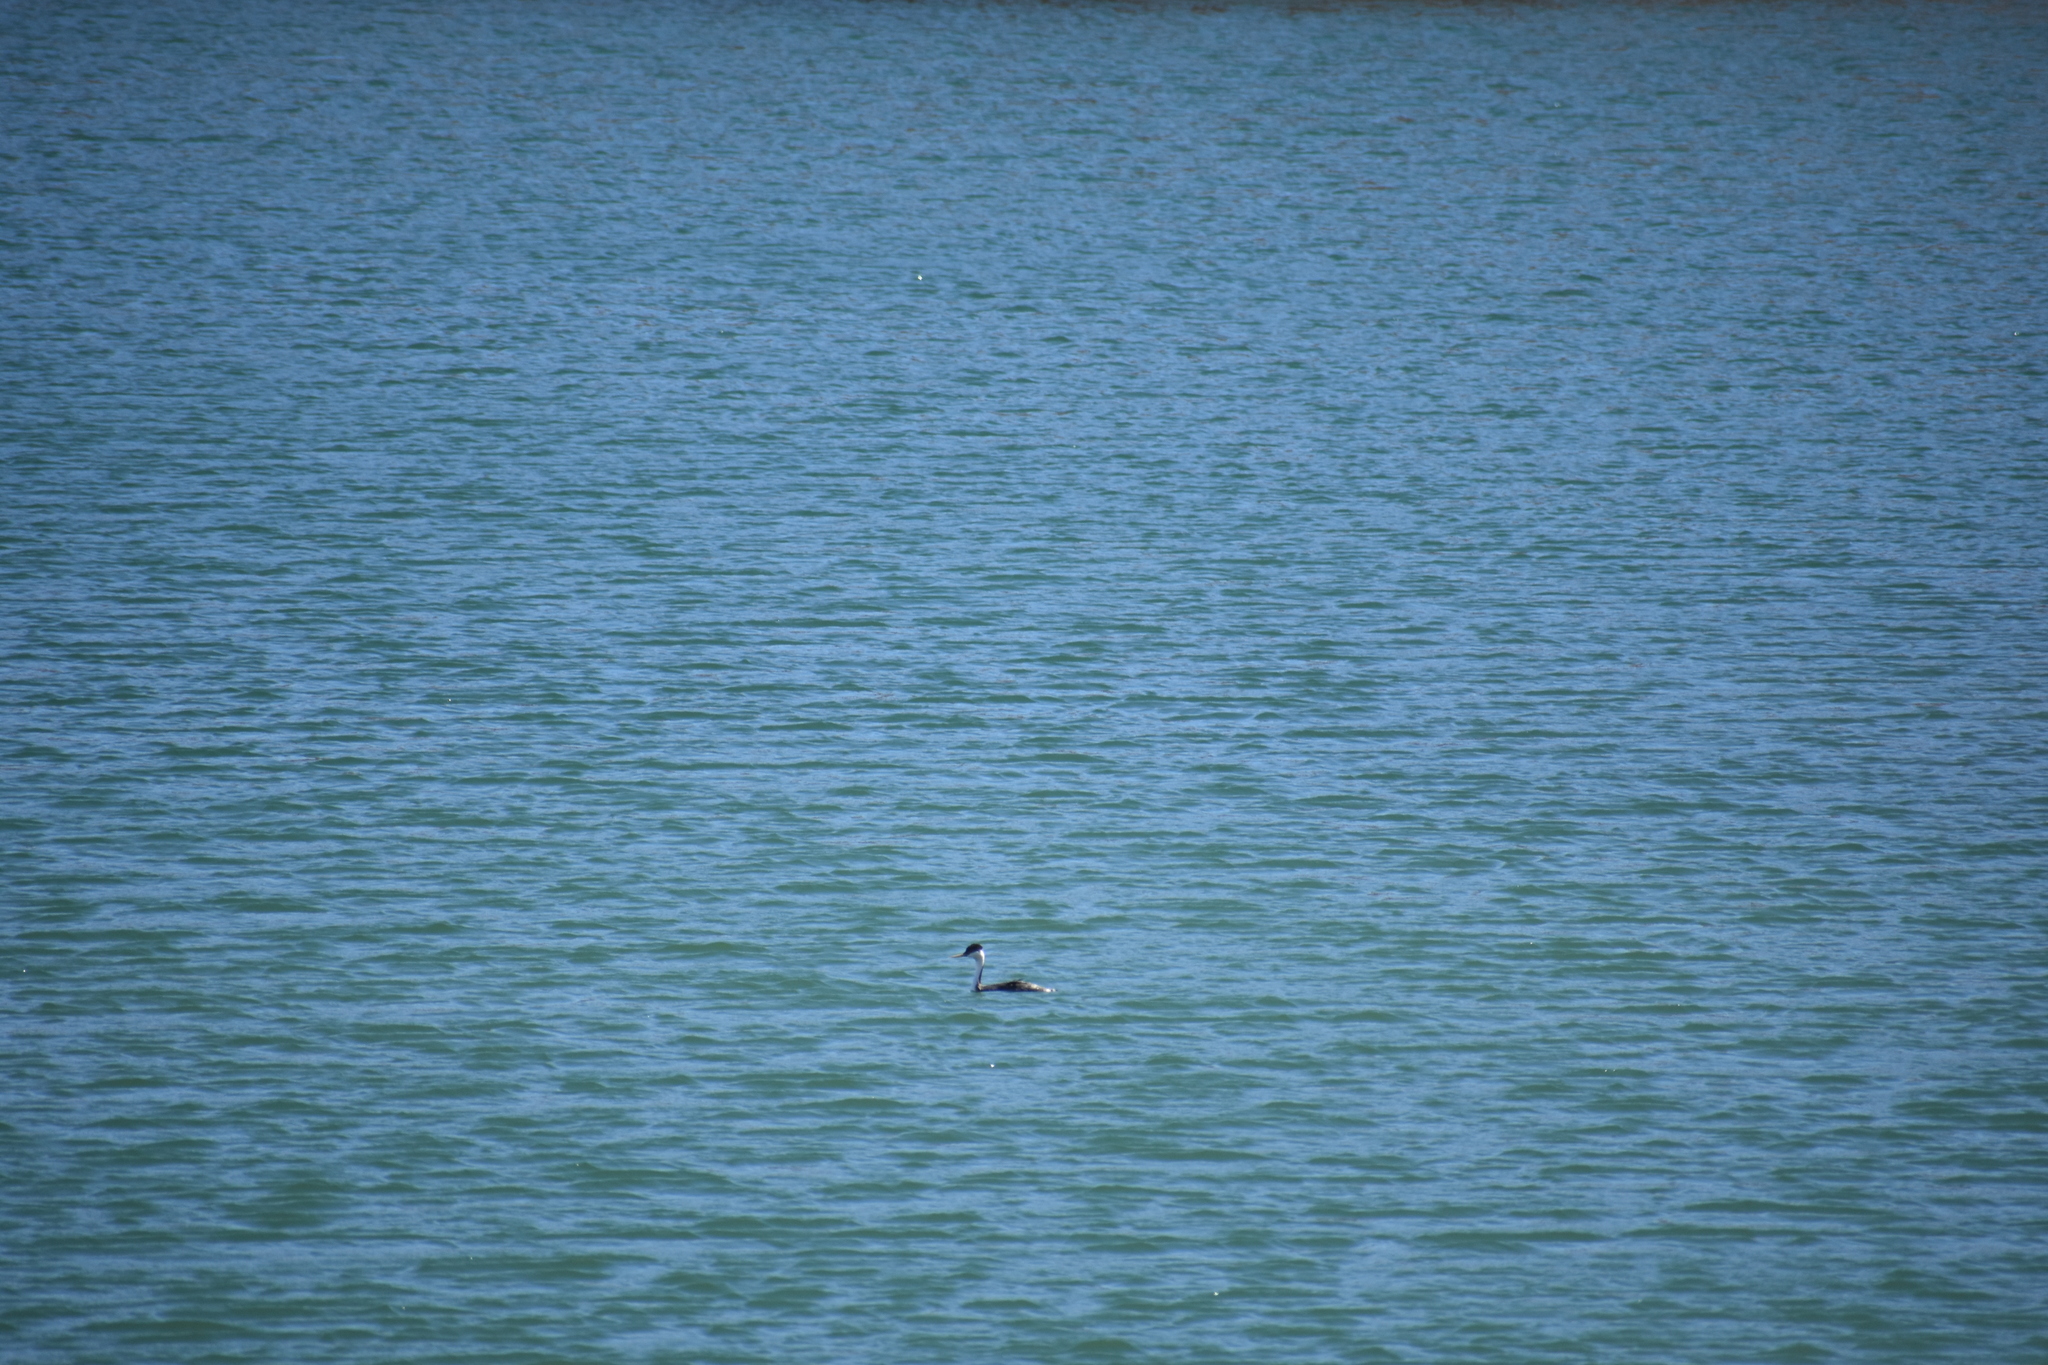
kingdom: Animalia
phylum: Chordata
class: Aves
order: Podicipediformes
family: Podicipedidae
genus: Aechmophorus
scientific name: Aechmophorus occidentalis
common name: Western grebe
